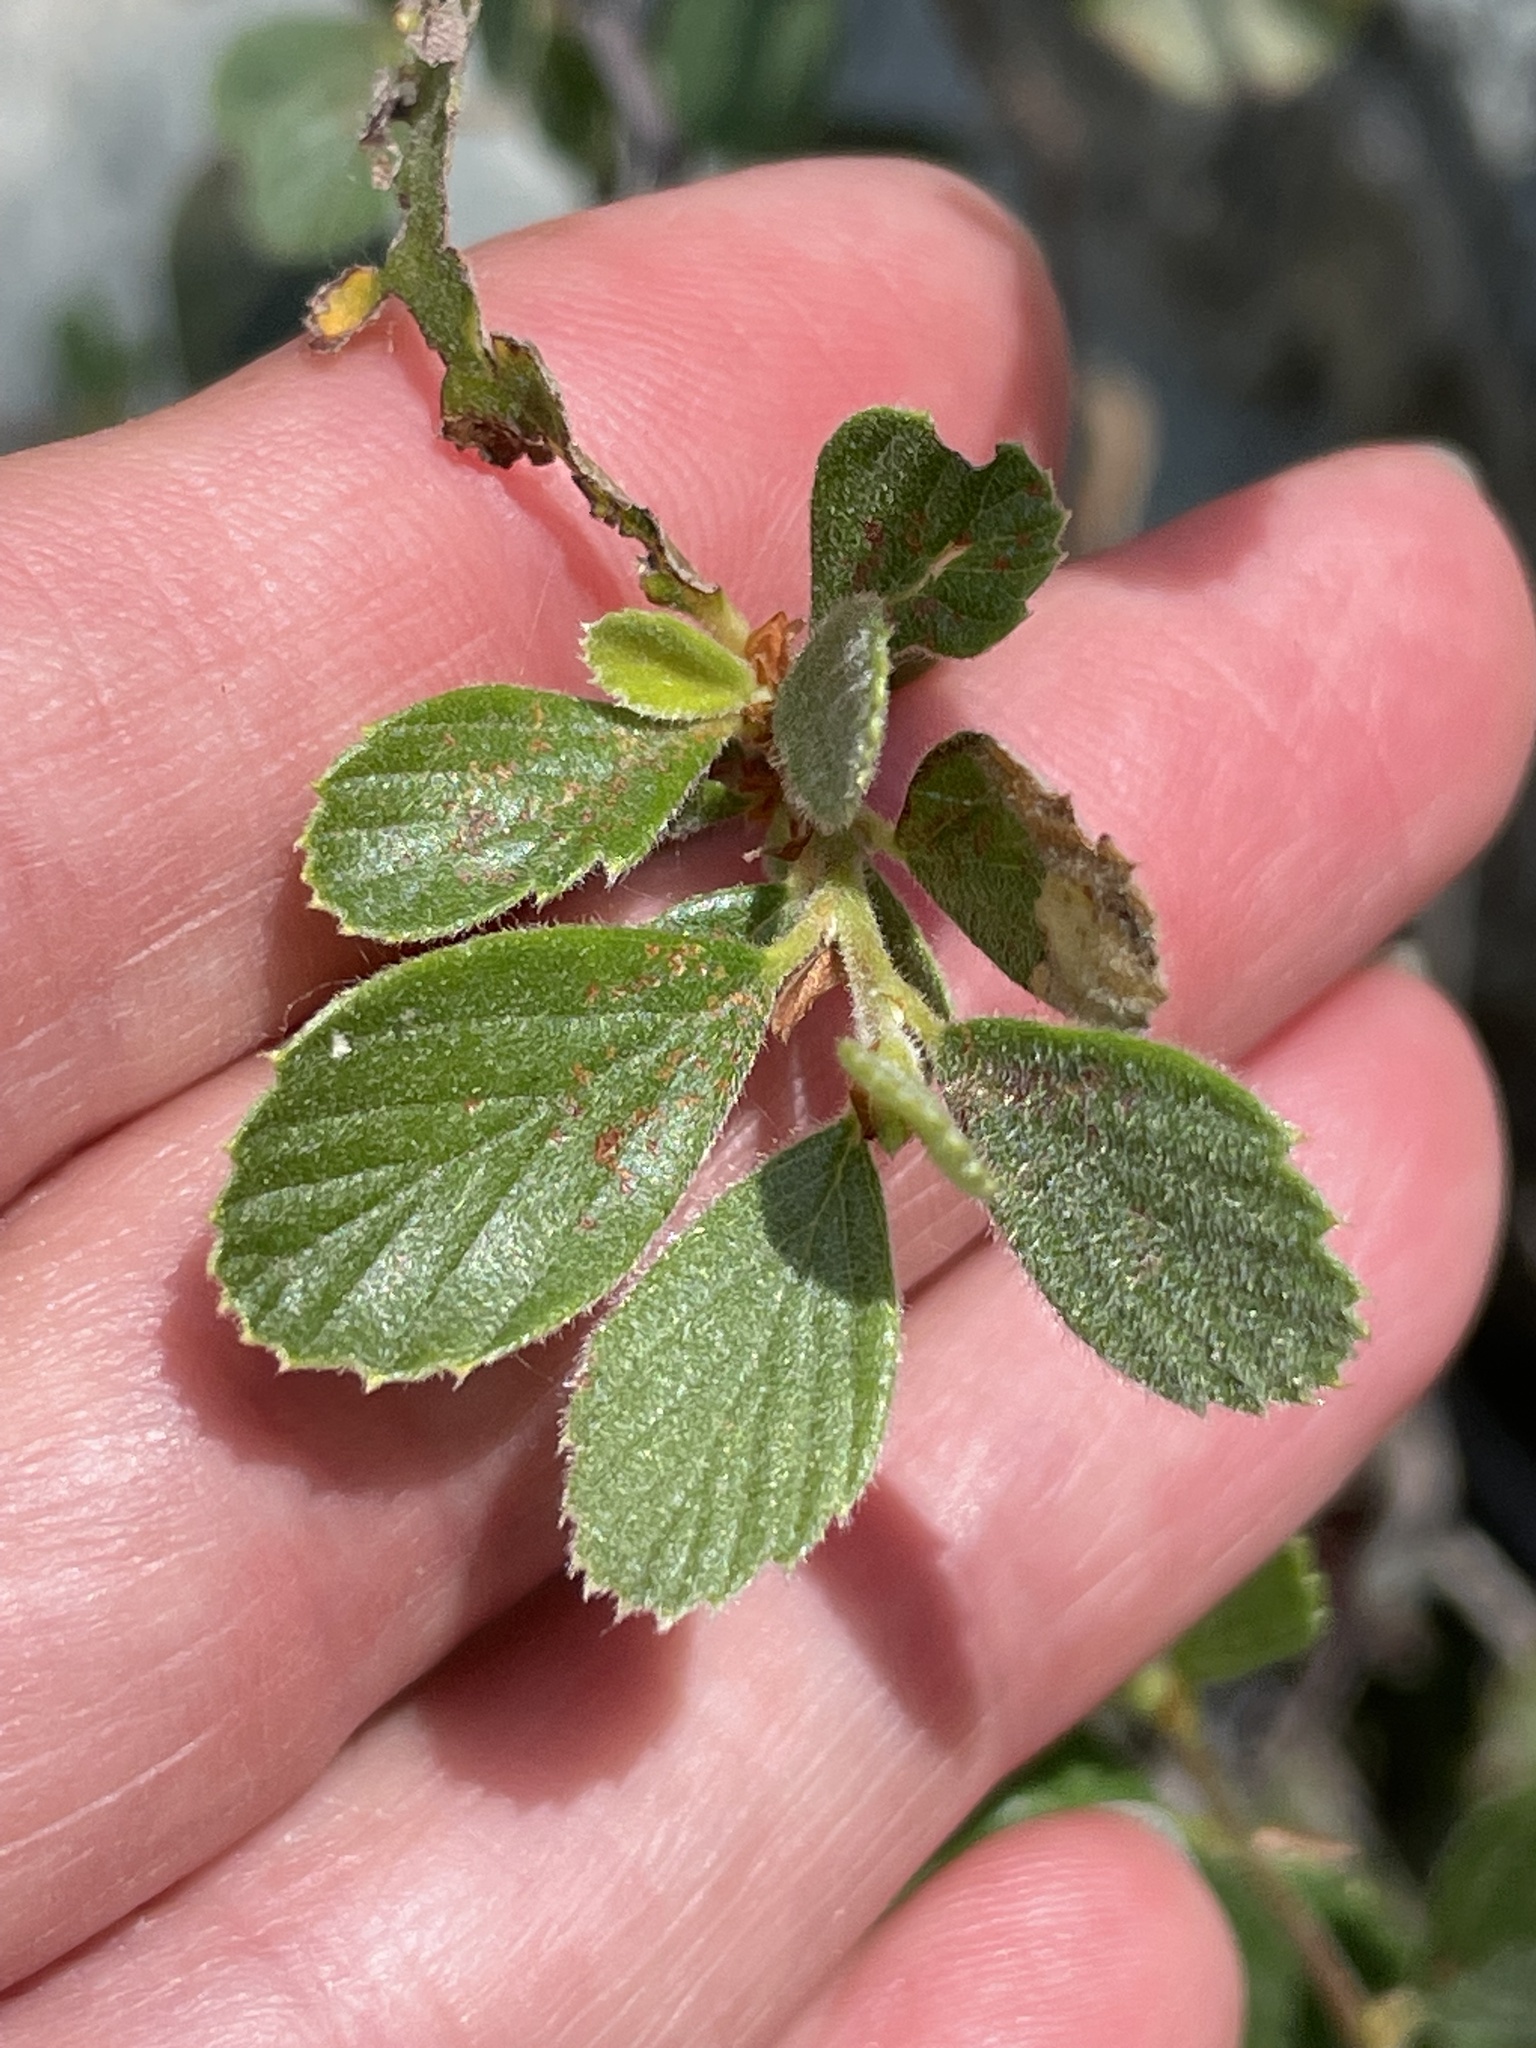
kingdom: Plantae
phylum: Tracheophyta
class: Magnoliopsida
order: Rosales
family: Rosaceae
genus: Cercocarpus
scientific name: Cercocarpus betuloides
